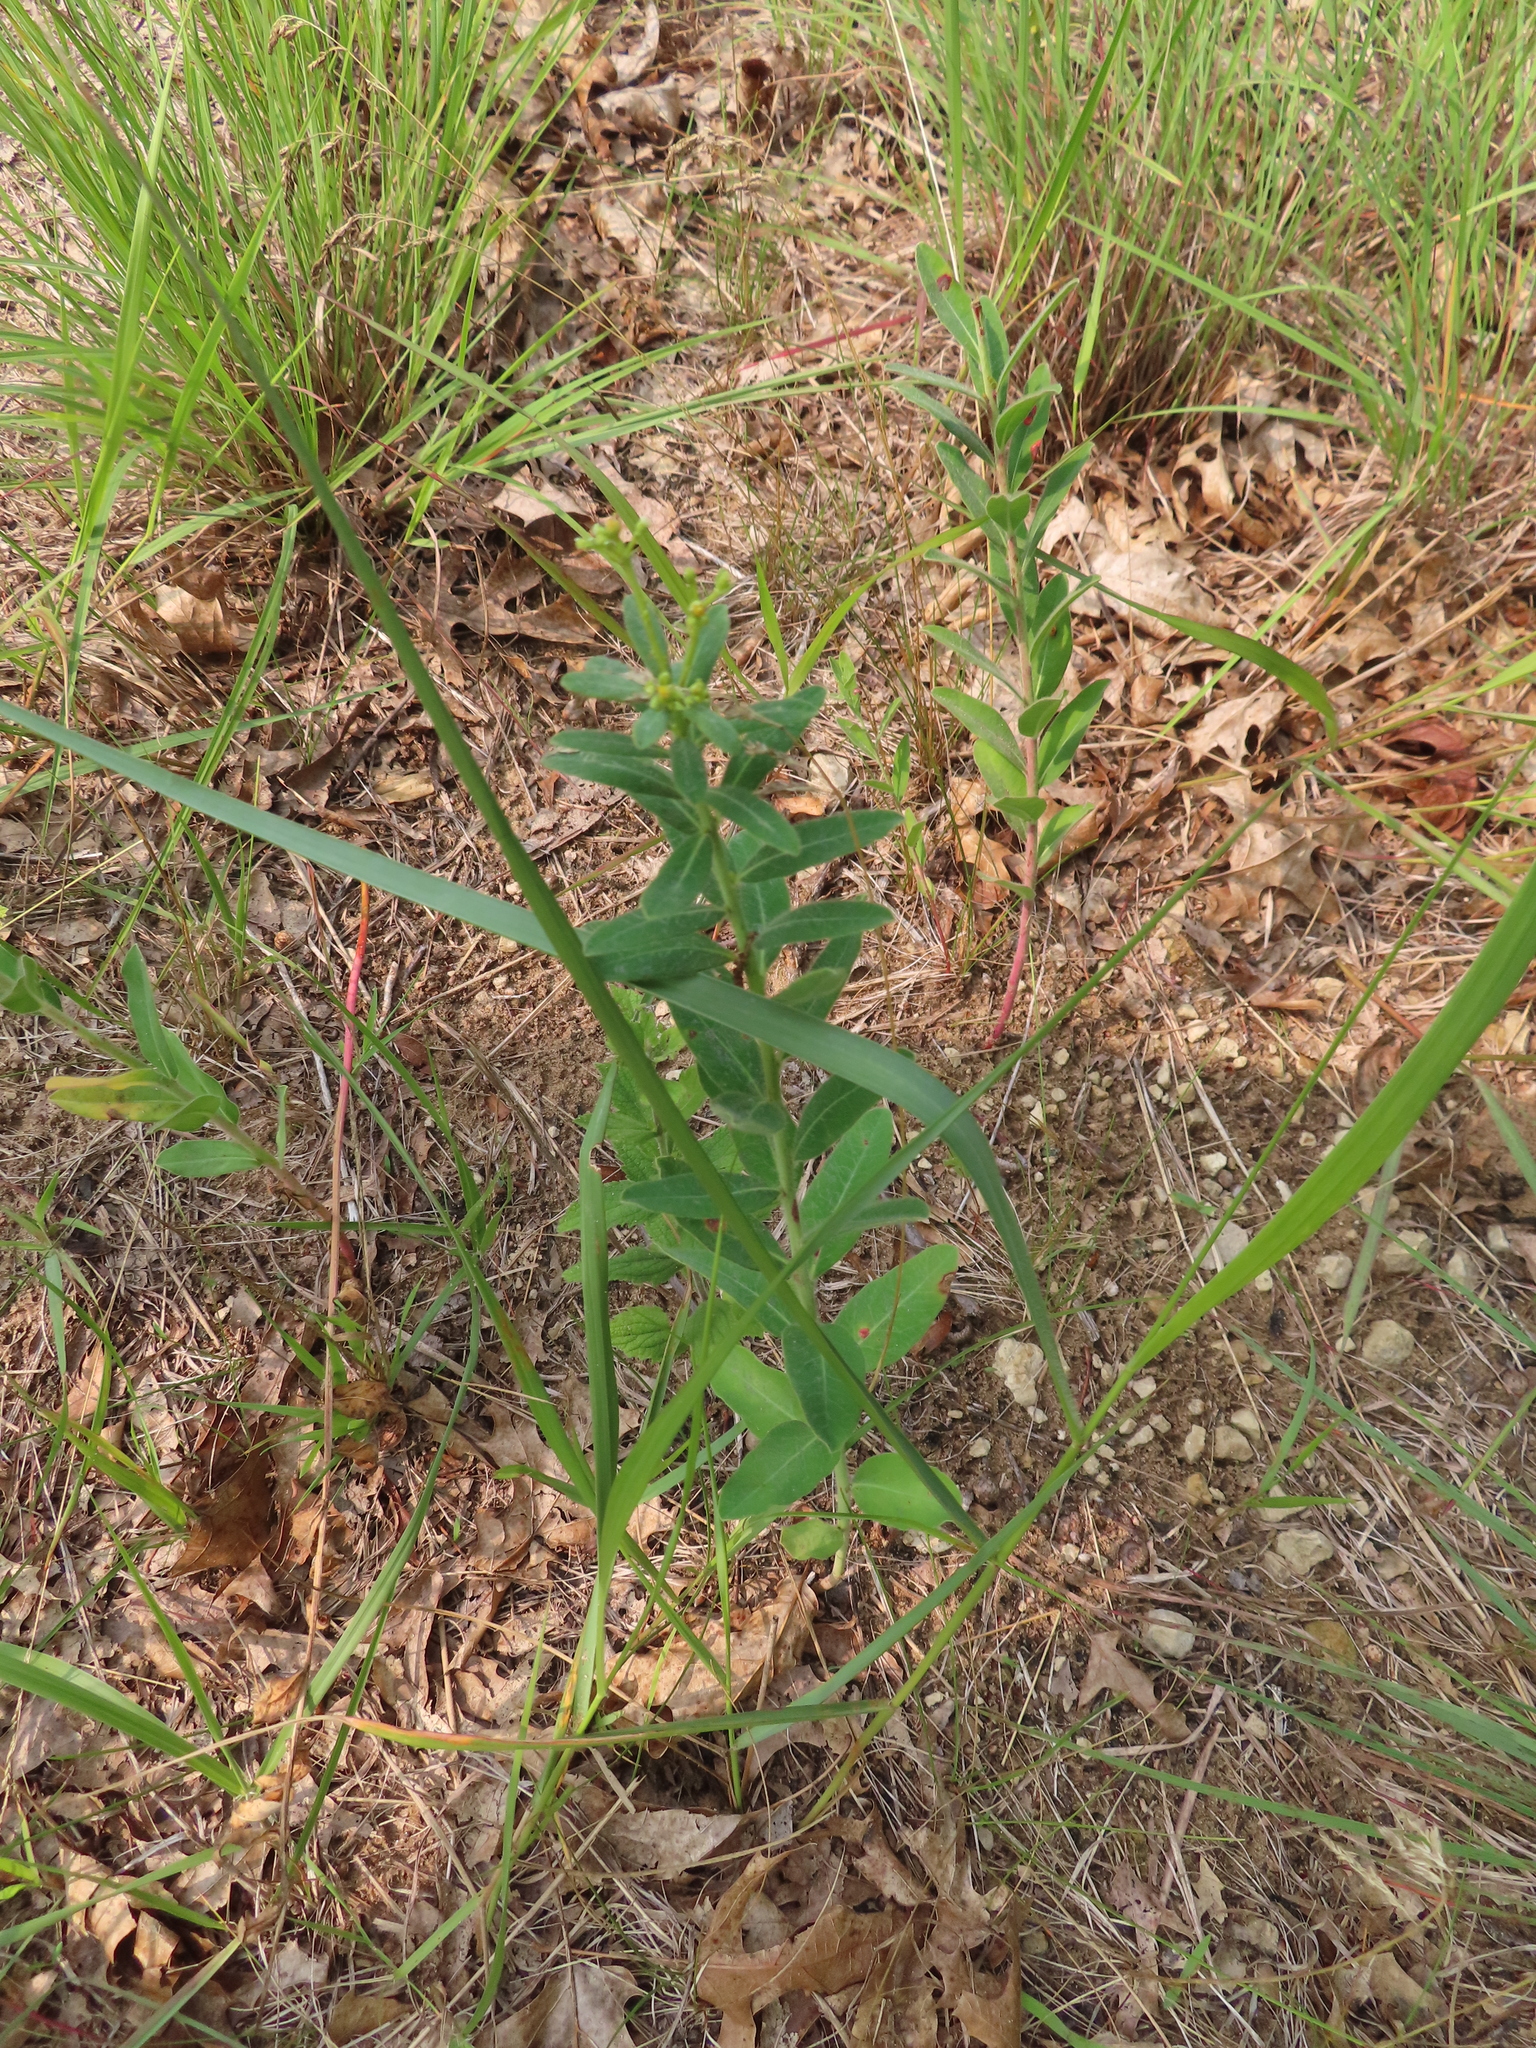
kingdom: Plantae
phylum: Tracheophyta
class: Magnoliopsida
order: Malpighiales
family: Euphorbiaceae
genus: Euphorbia
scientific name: Euphorbia corollata
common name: Flowering spurge
